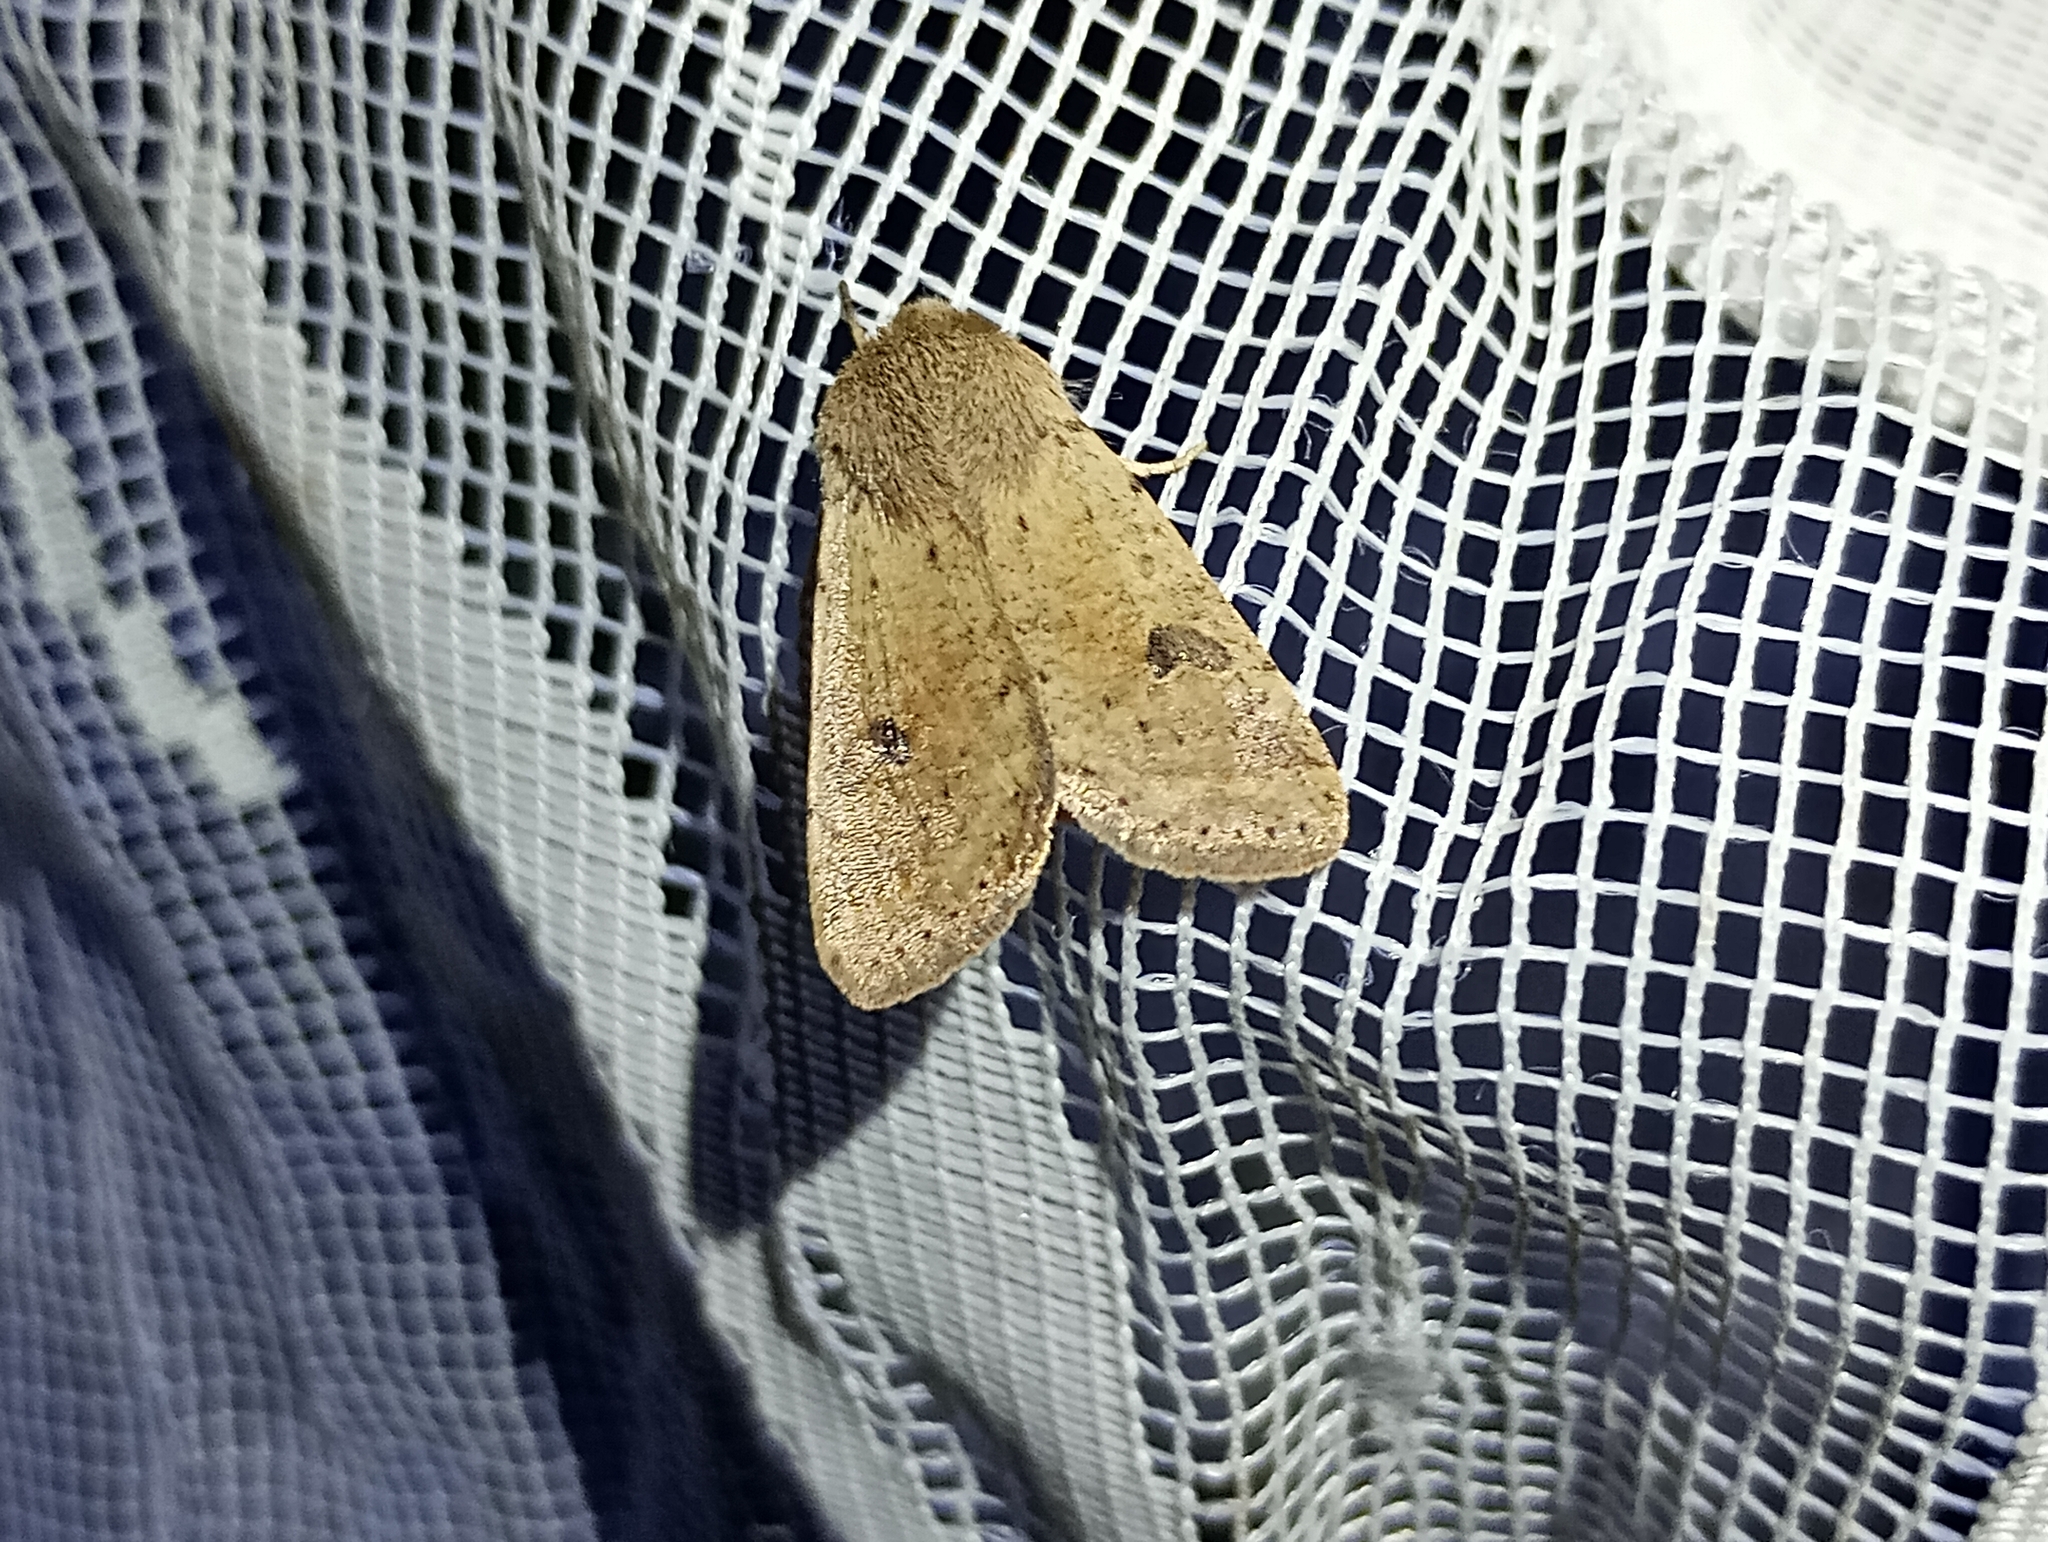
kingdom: Animalia
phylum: Arthropoda
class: Insecta
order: Lepidoptera
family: Noctuidae
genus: Orthosia
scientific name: Orthosia cruda
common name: Small quaker
